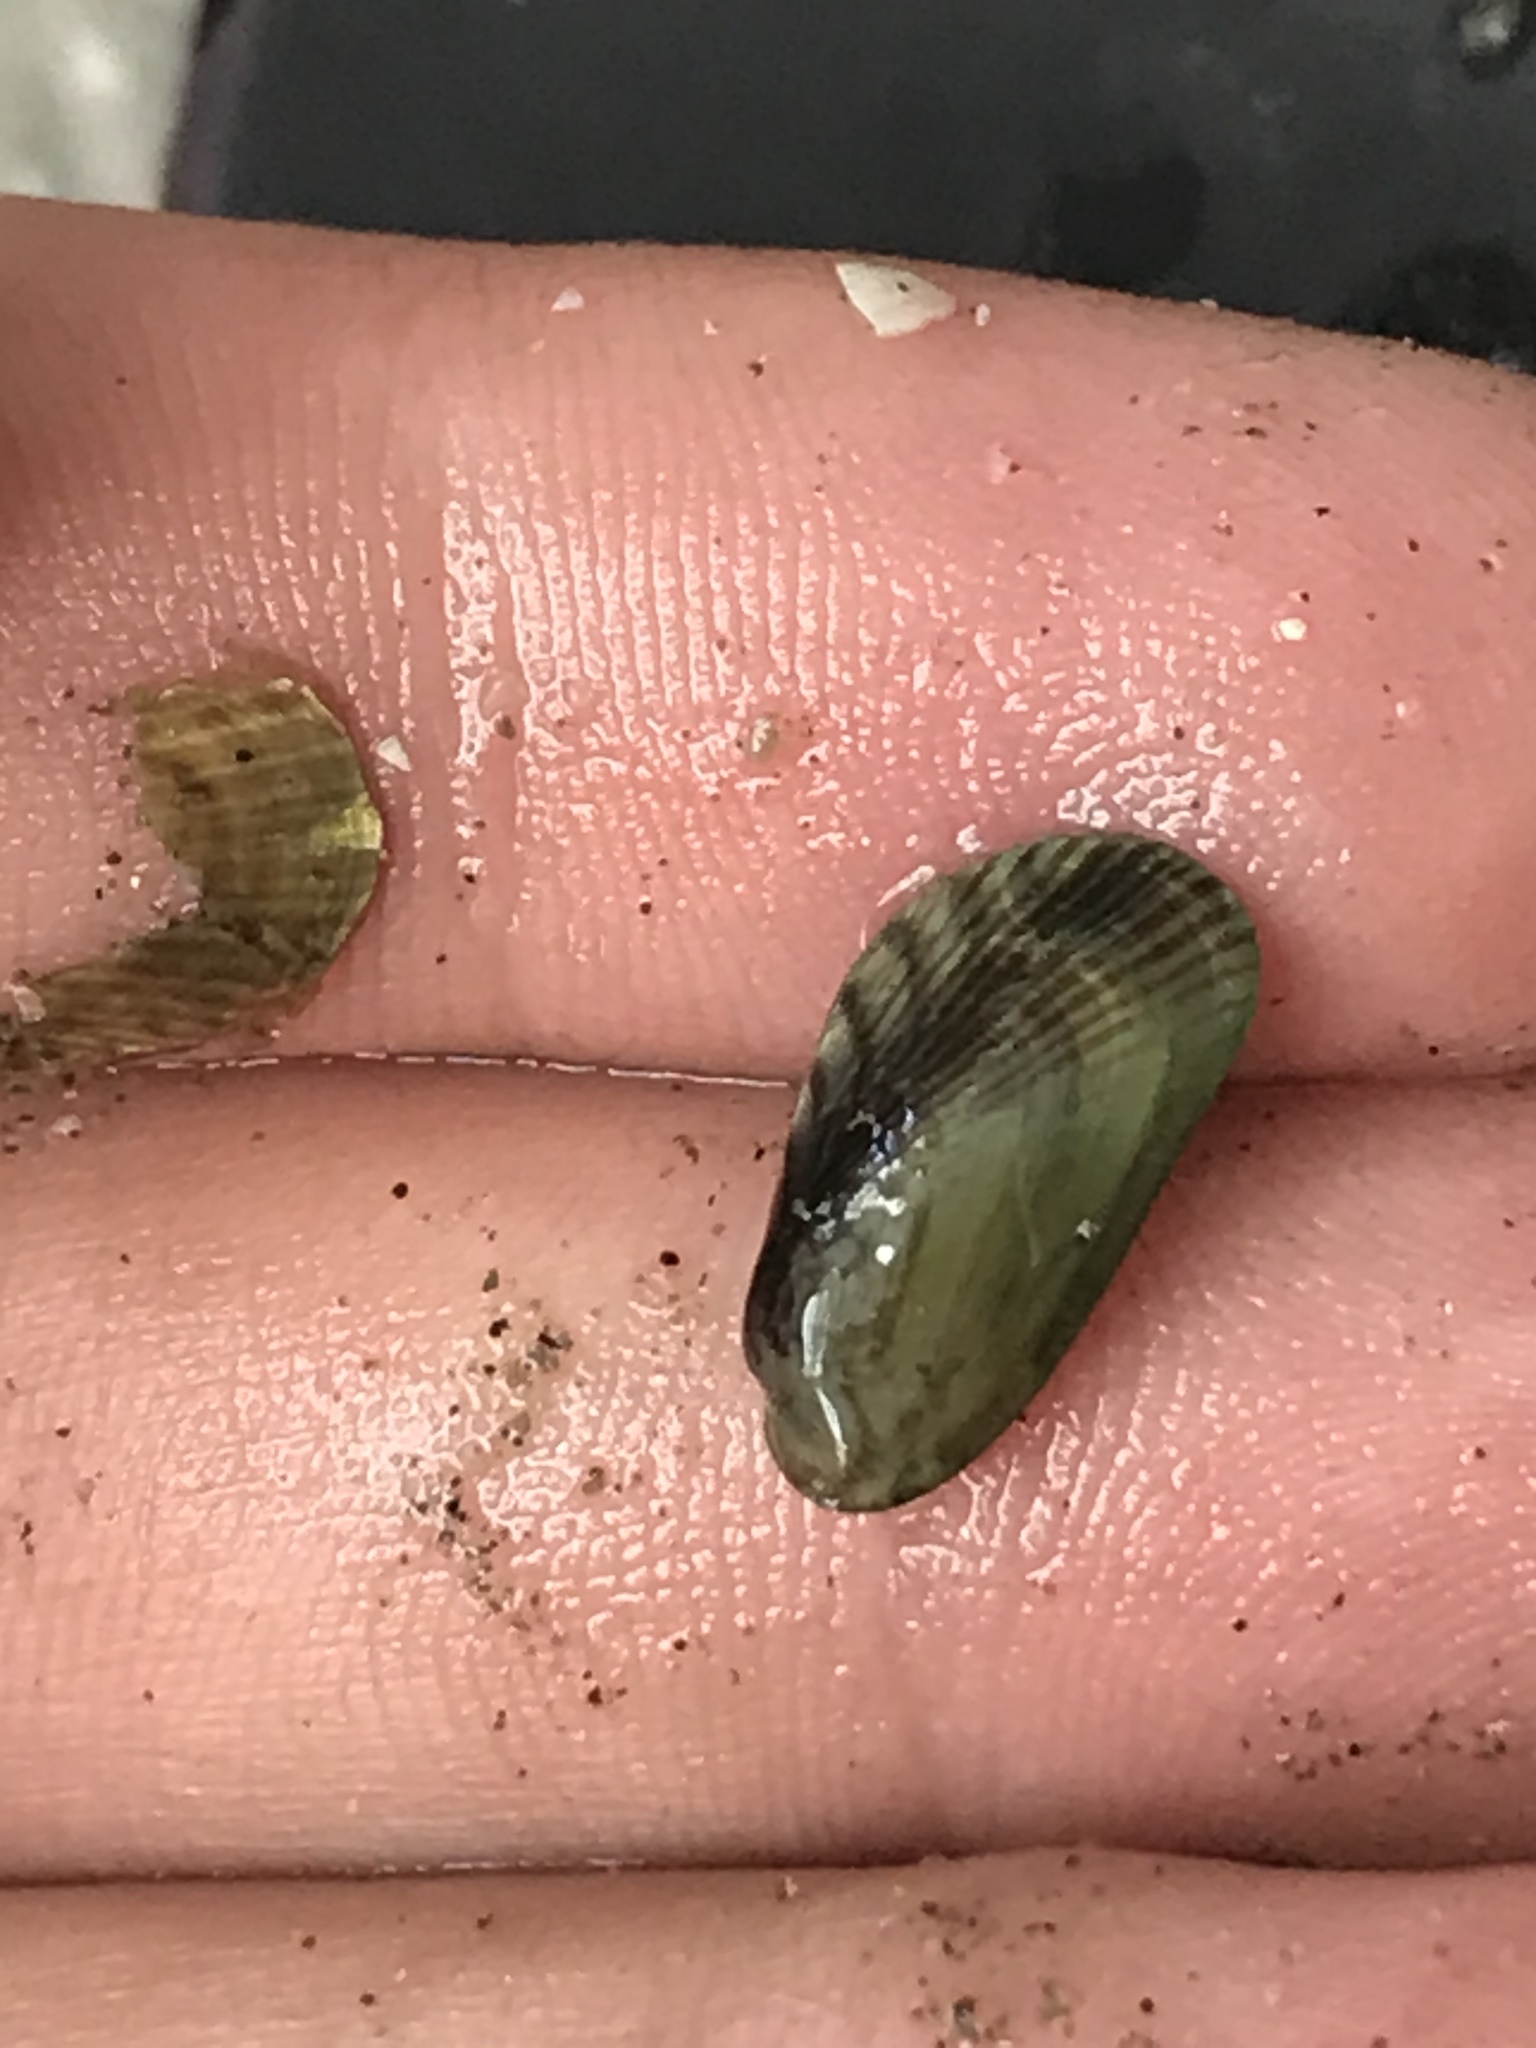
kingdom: Animalia
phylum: Mollusca
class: Bivalvia
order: Mytilida
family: Mytilidae
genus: Arcuatula
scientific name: Arcuatula senhousia
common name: Asian mussel
